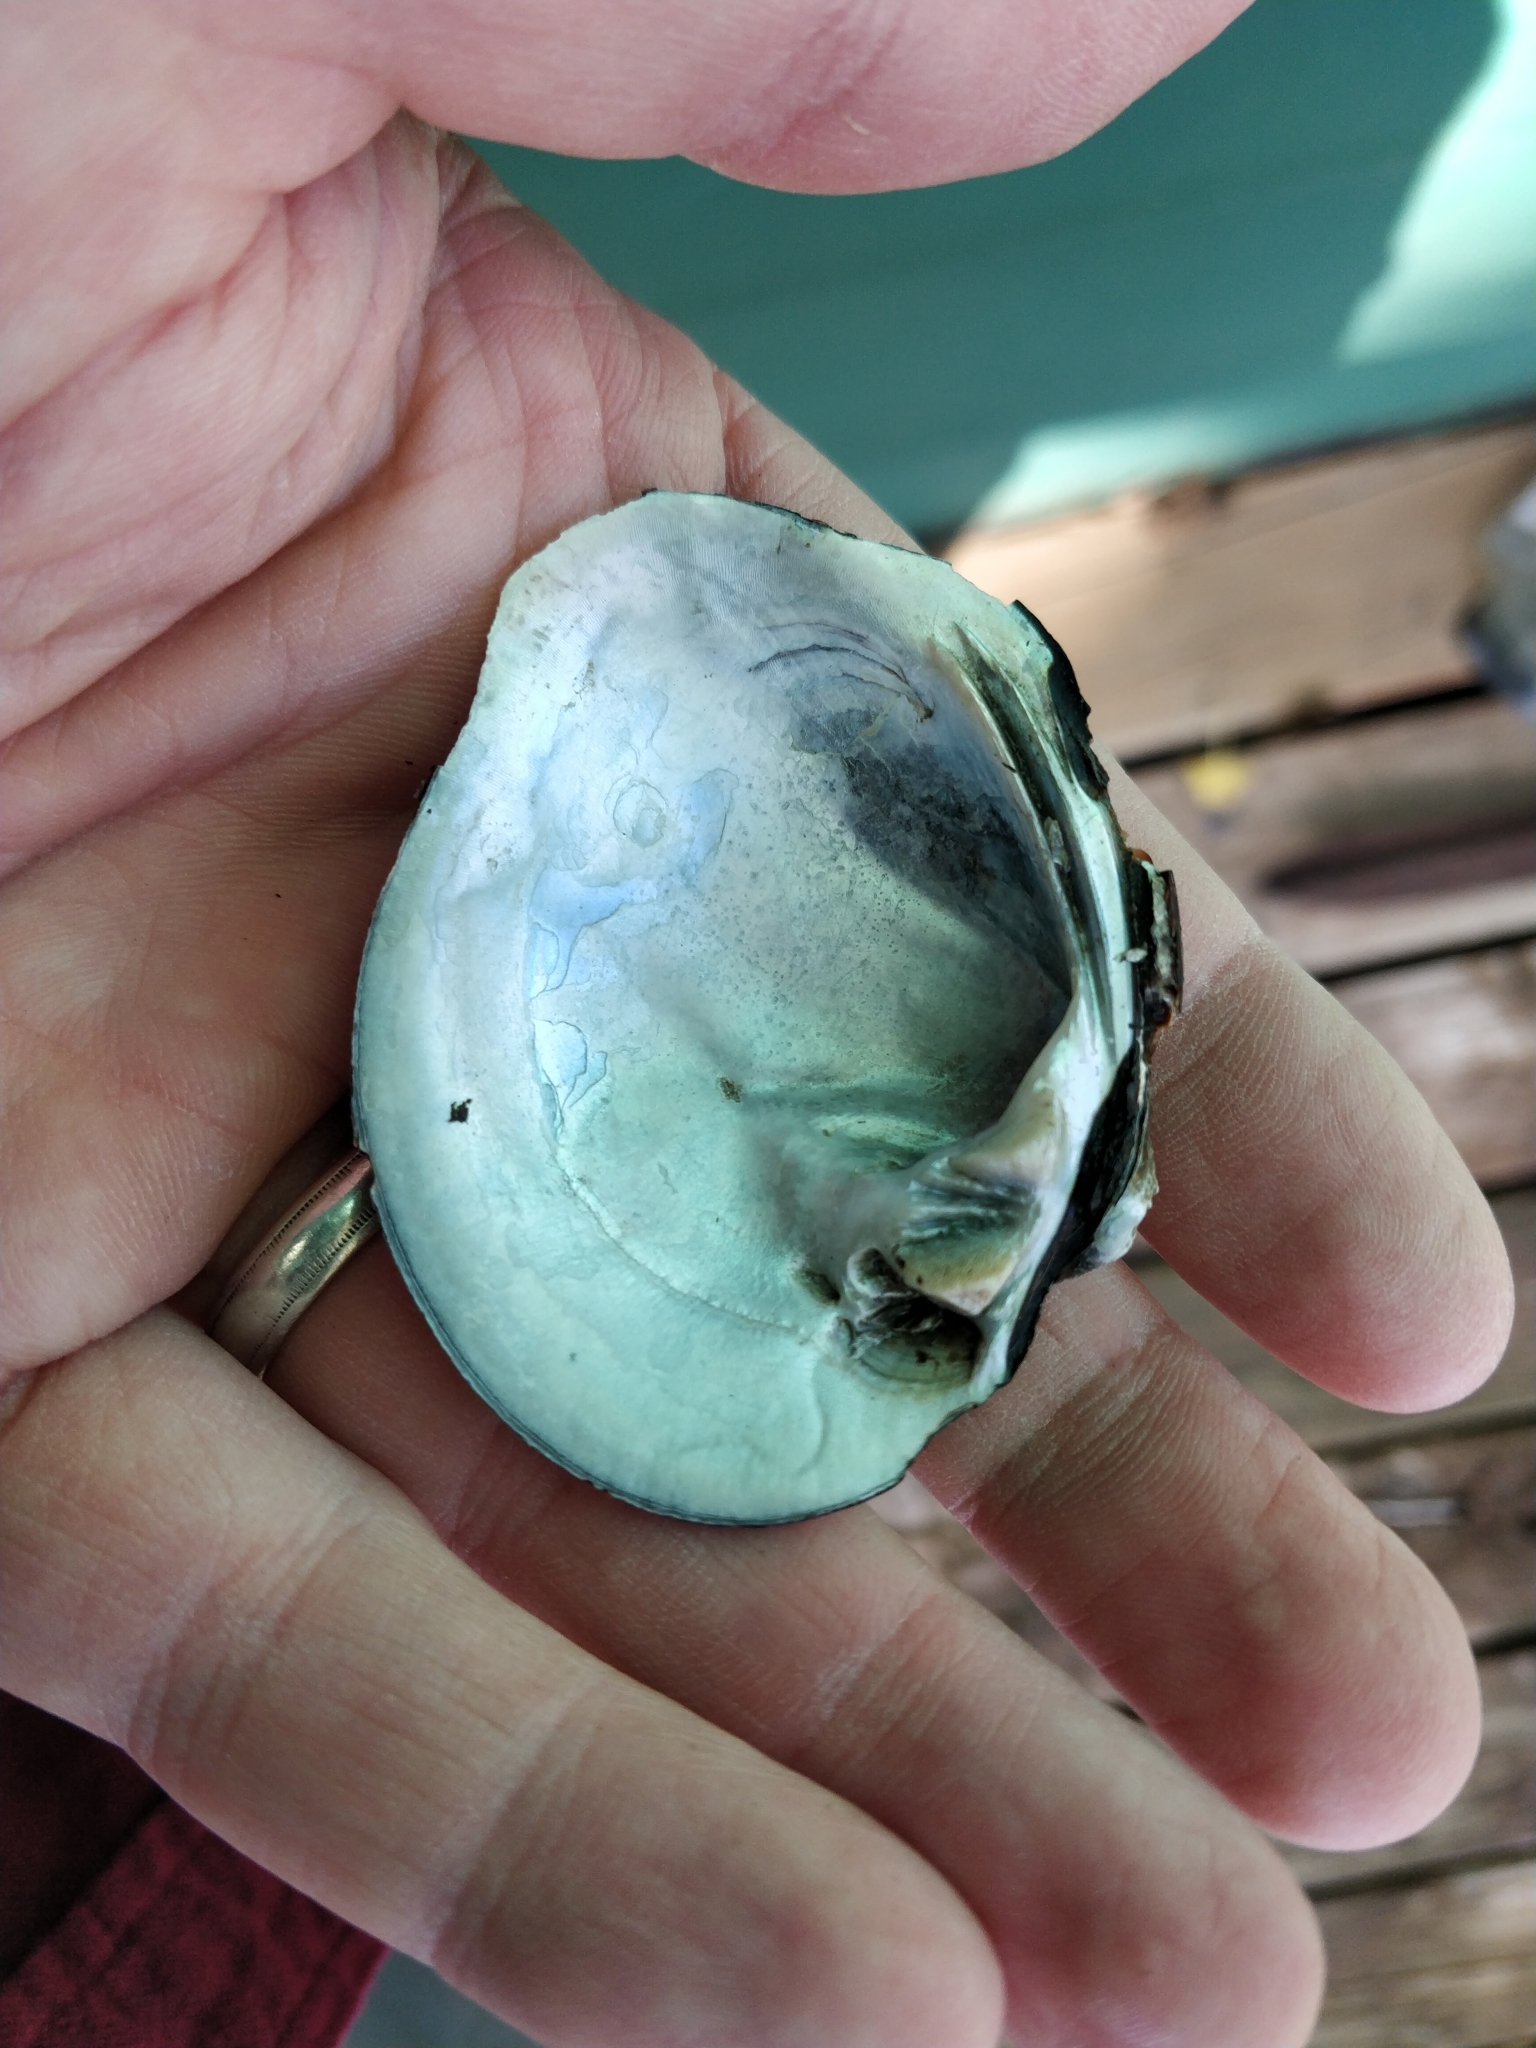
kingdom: Animalia
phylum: Mollusca
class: Bivalvia
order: Unionida
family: Unionidae
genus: Quadrula
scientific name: Quadrula quadrula
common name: Mapleleaf
